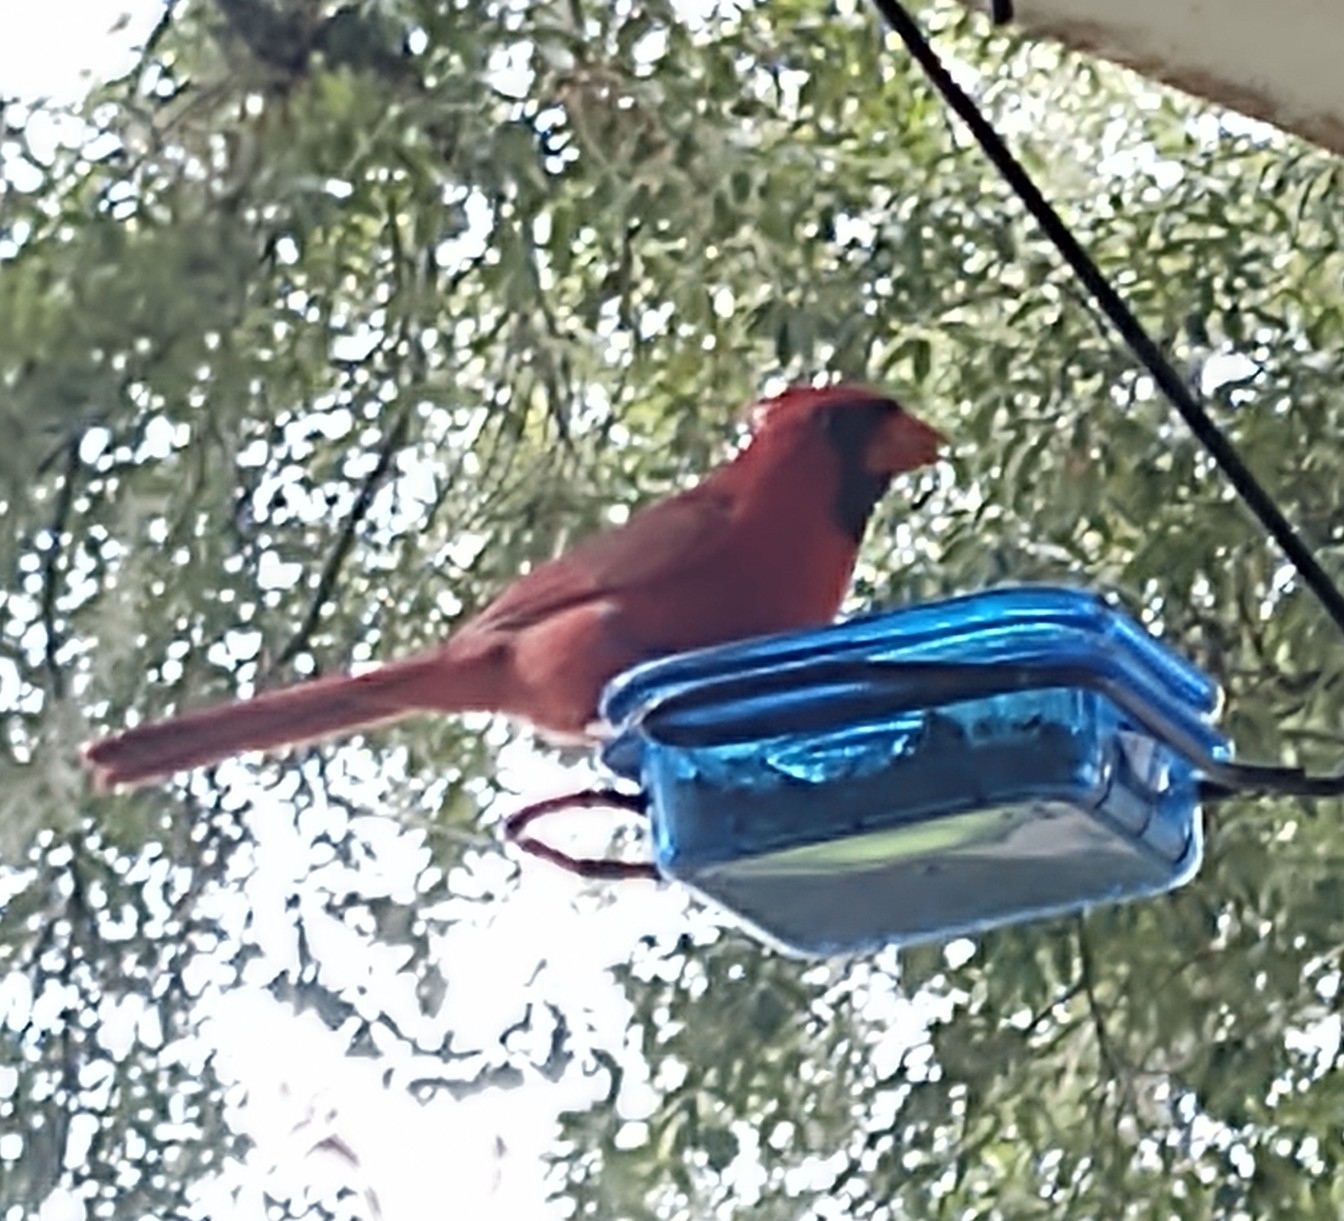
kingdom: Animalia
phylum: Chordata
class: Aves
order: Passeriformes
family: Cardinalidae
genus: Cardinalis
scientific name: Cardinalis cardinalis
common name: Northern cardinal
